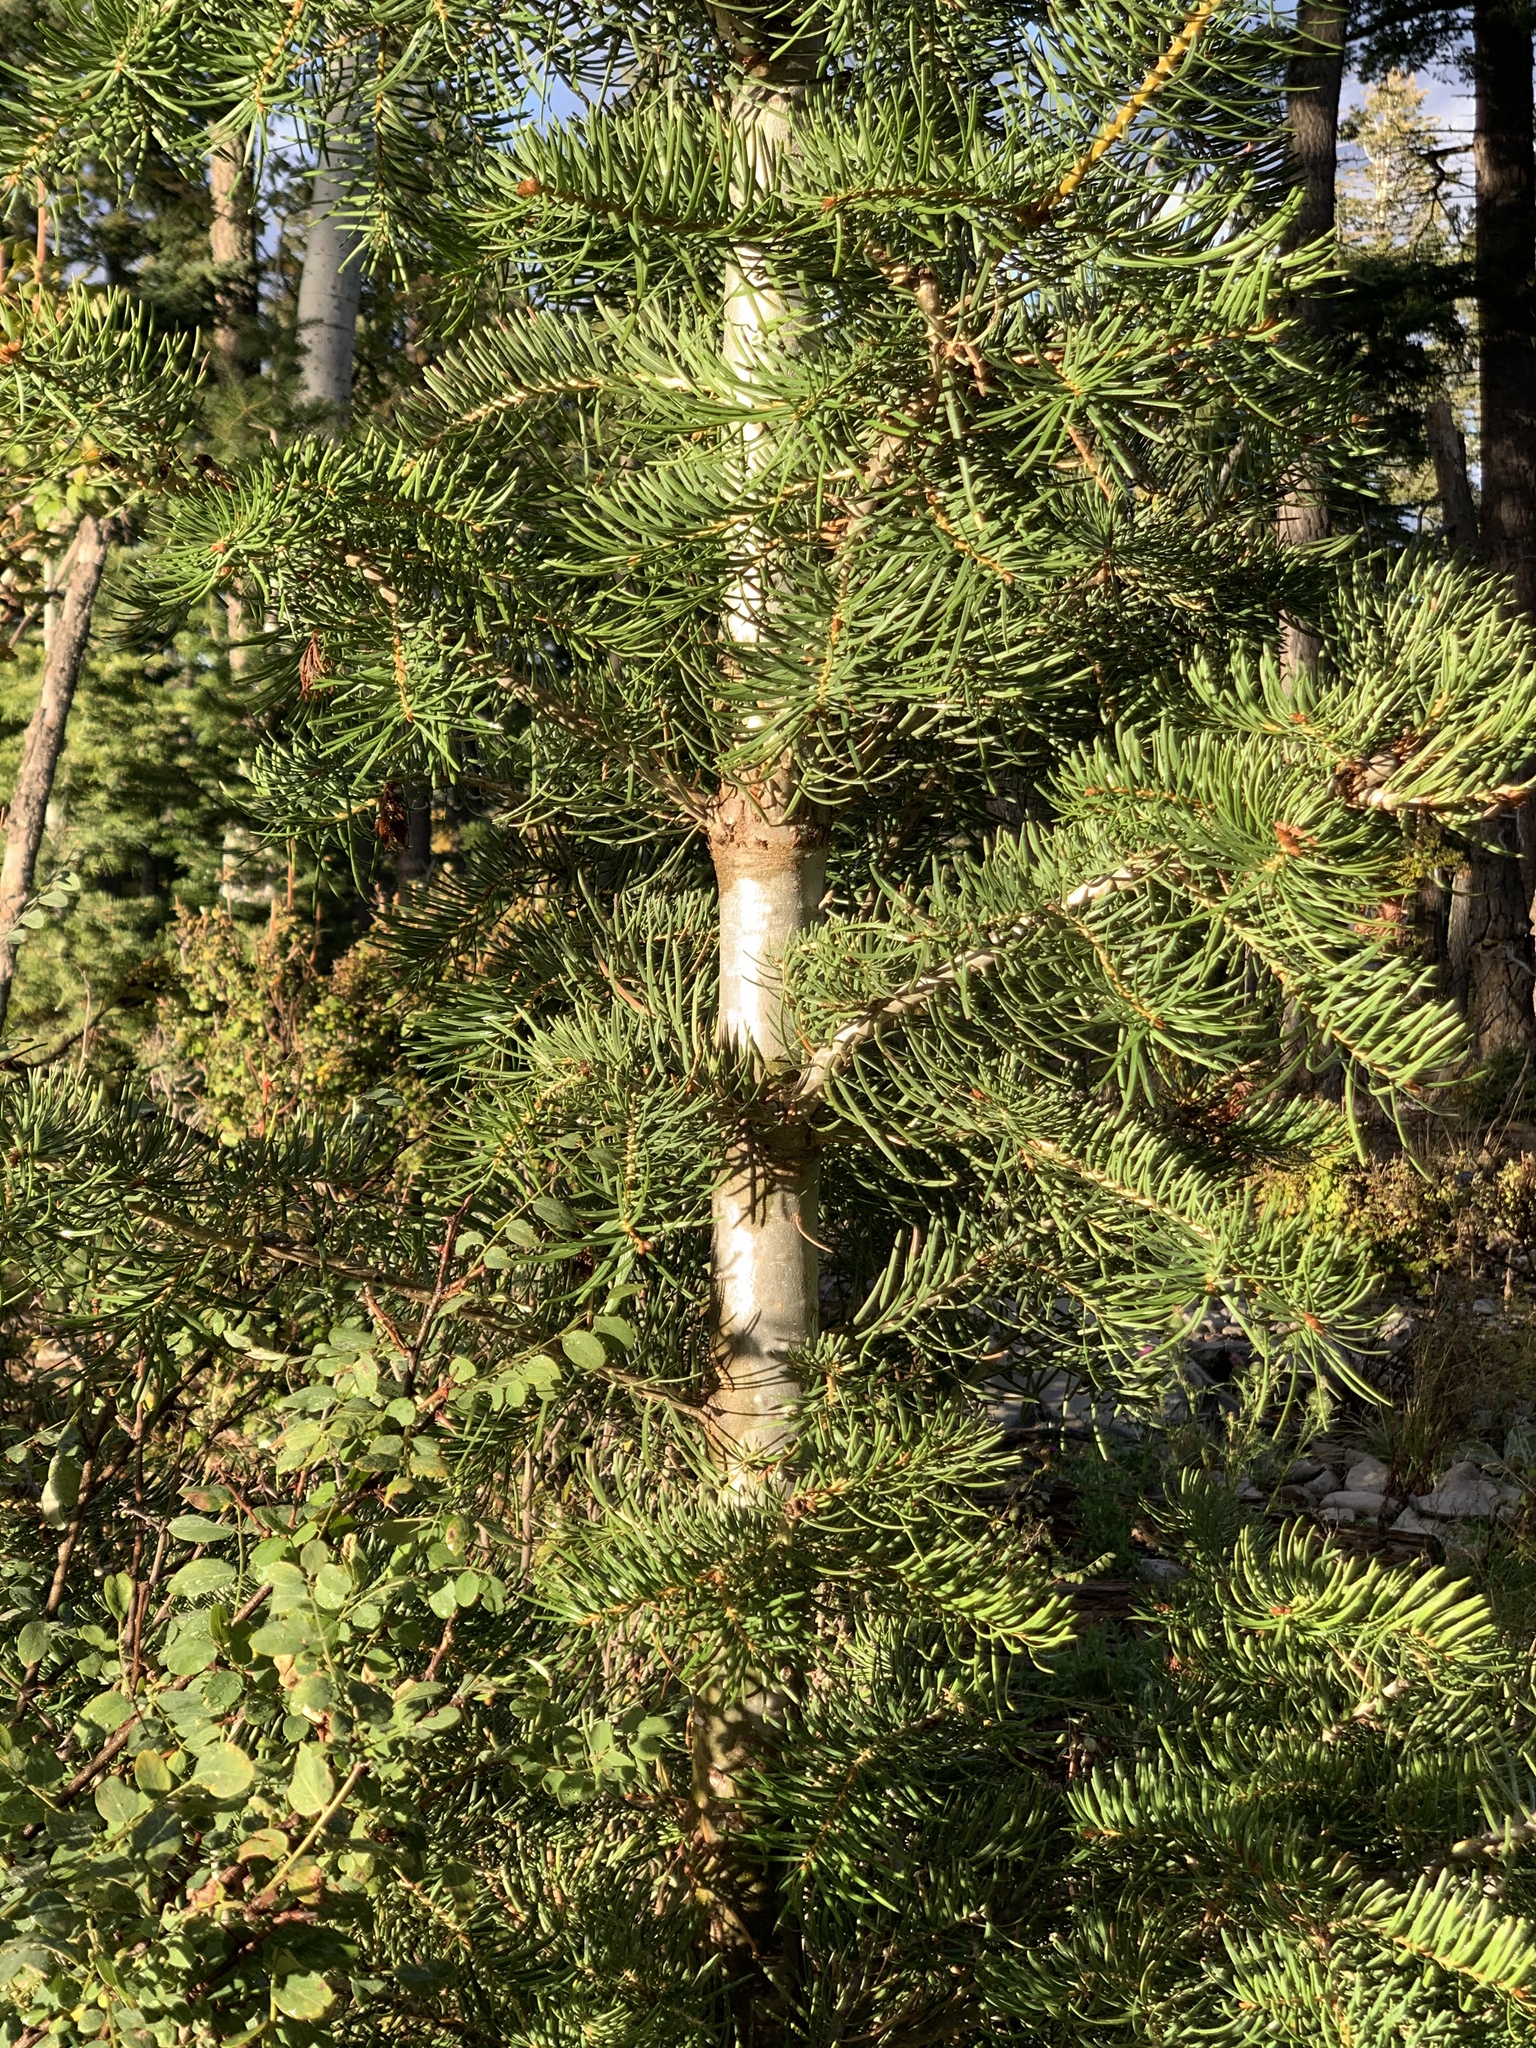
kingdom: Plantae
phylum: Tracheophyta
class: Pinopsida
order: Pinales
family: Pinaceae
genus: Abies
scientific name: Abies concolor
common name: Colorado fir
